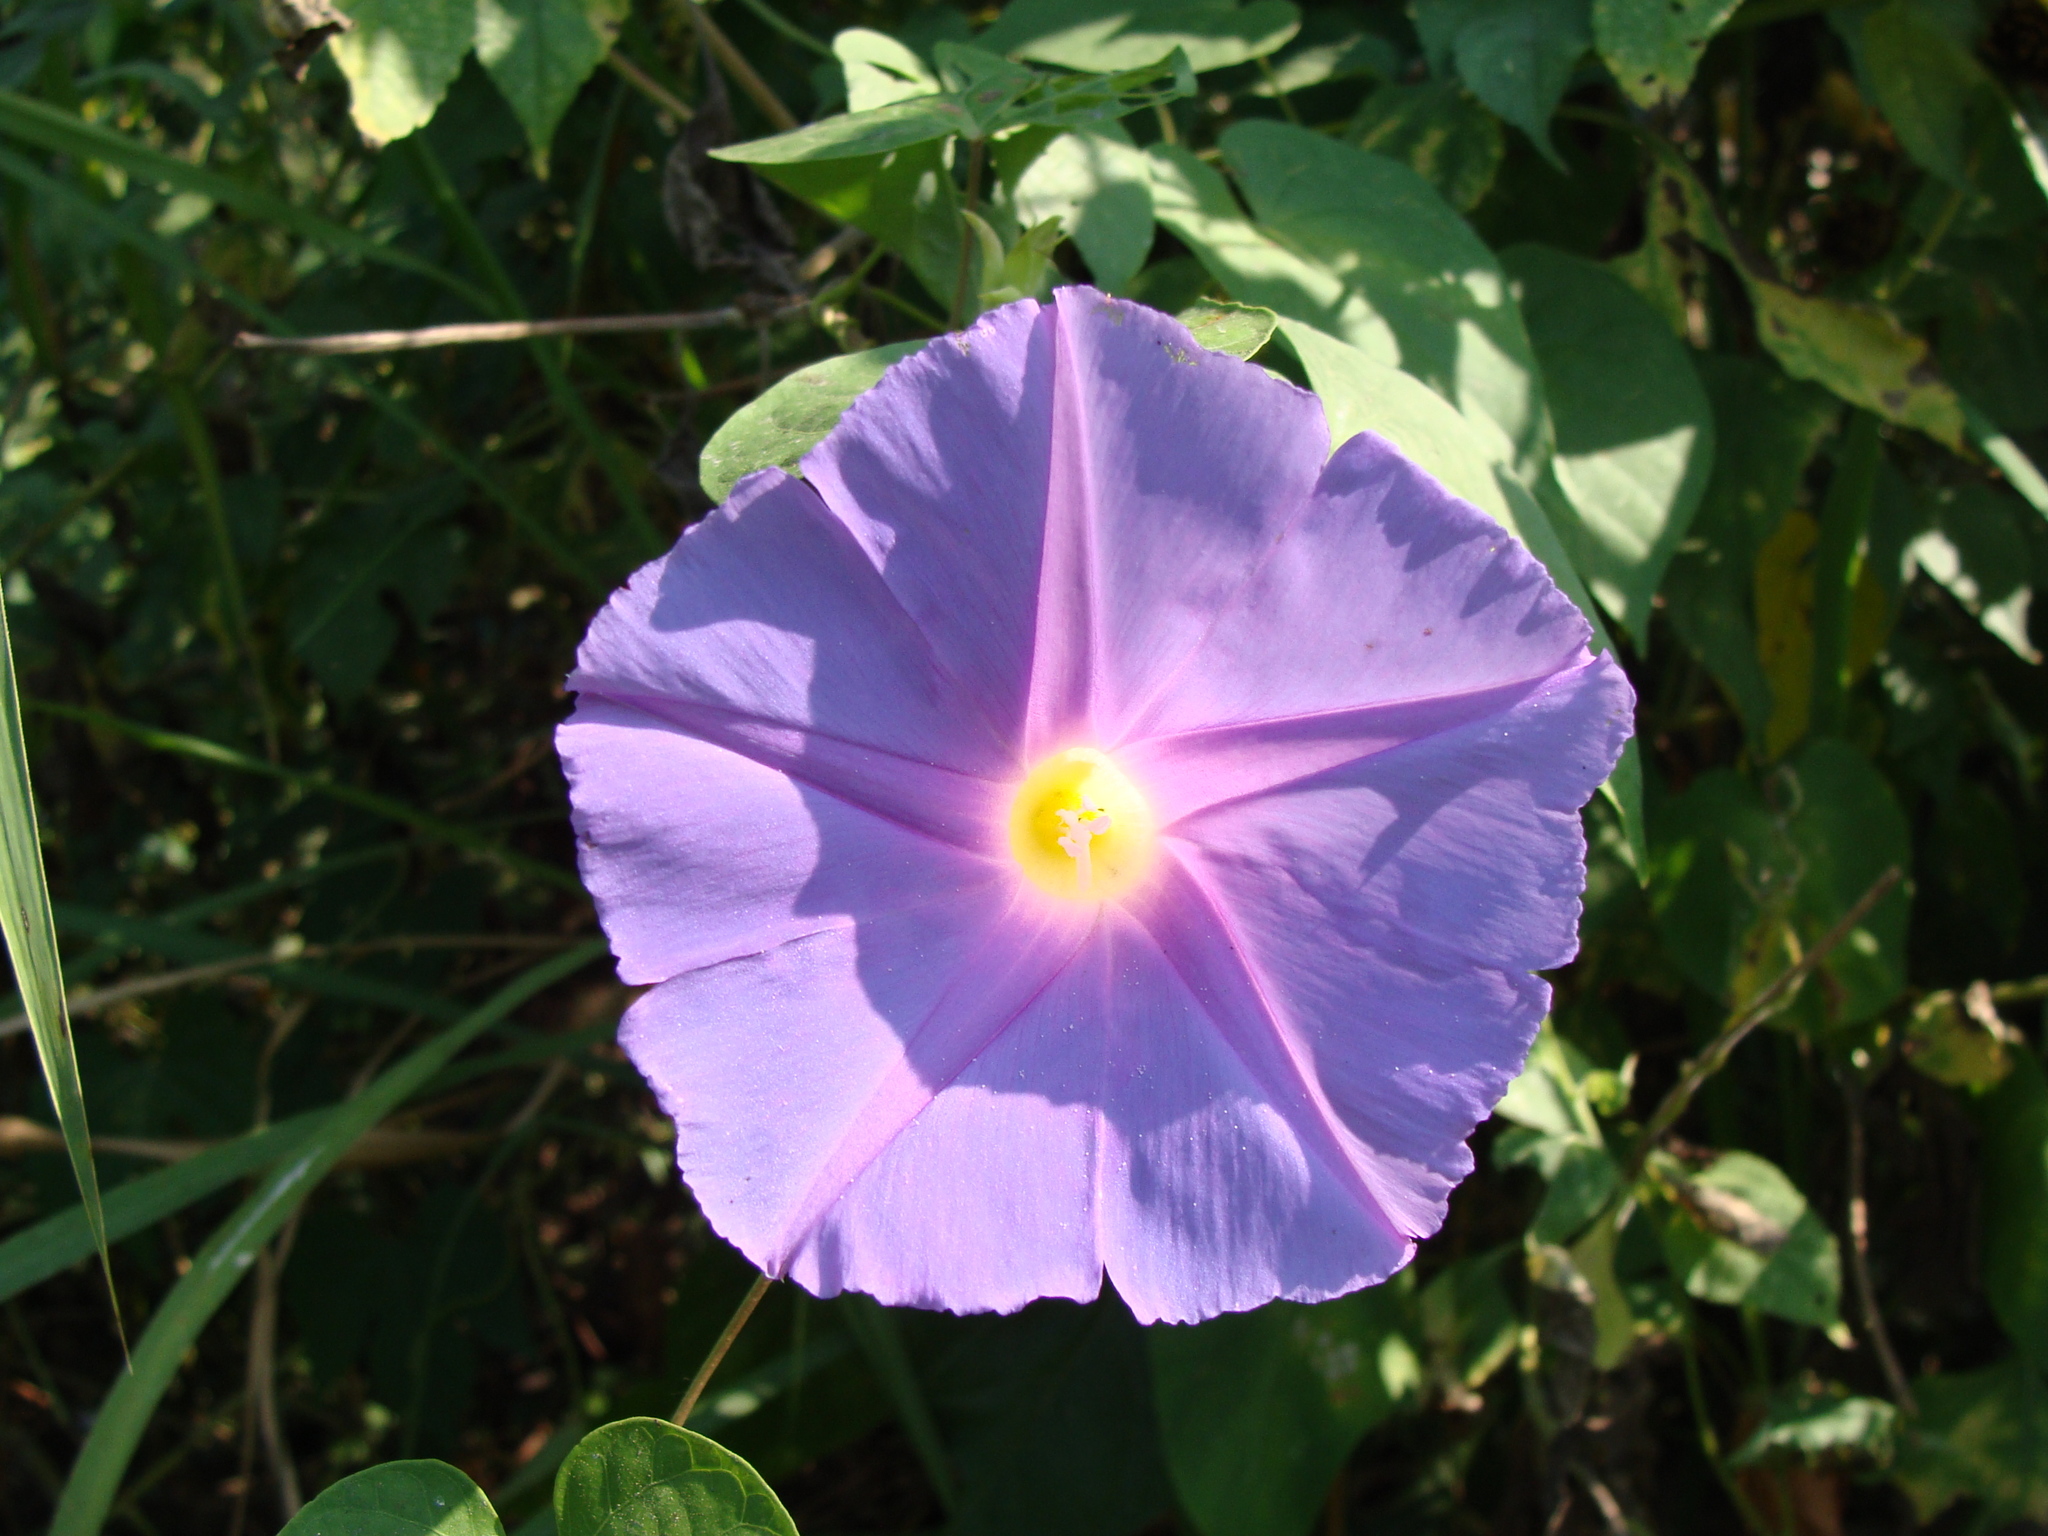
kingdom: Plantae
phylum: Tracheophyta
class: Magnoliopsida
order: Solanales
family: Convolvulaceae
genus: Ipomoea
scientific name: Ipomoea mitchelliae
